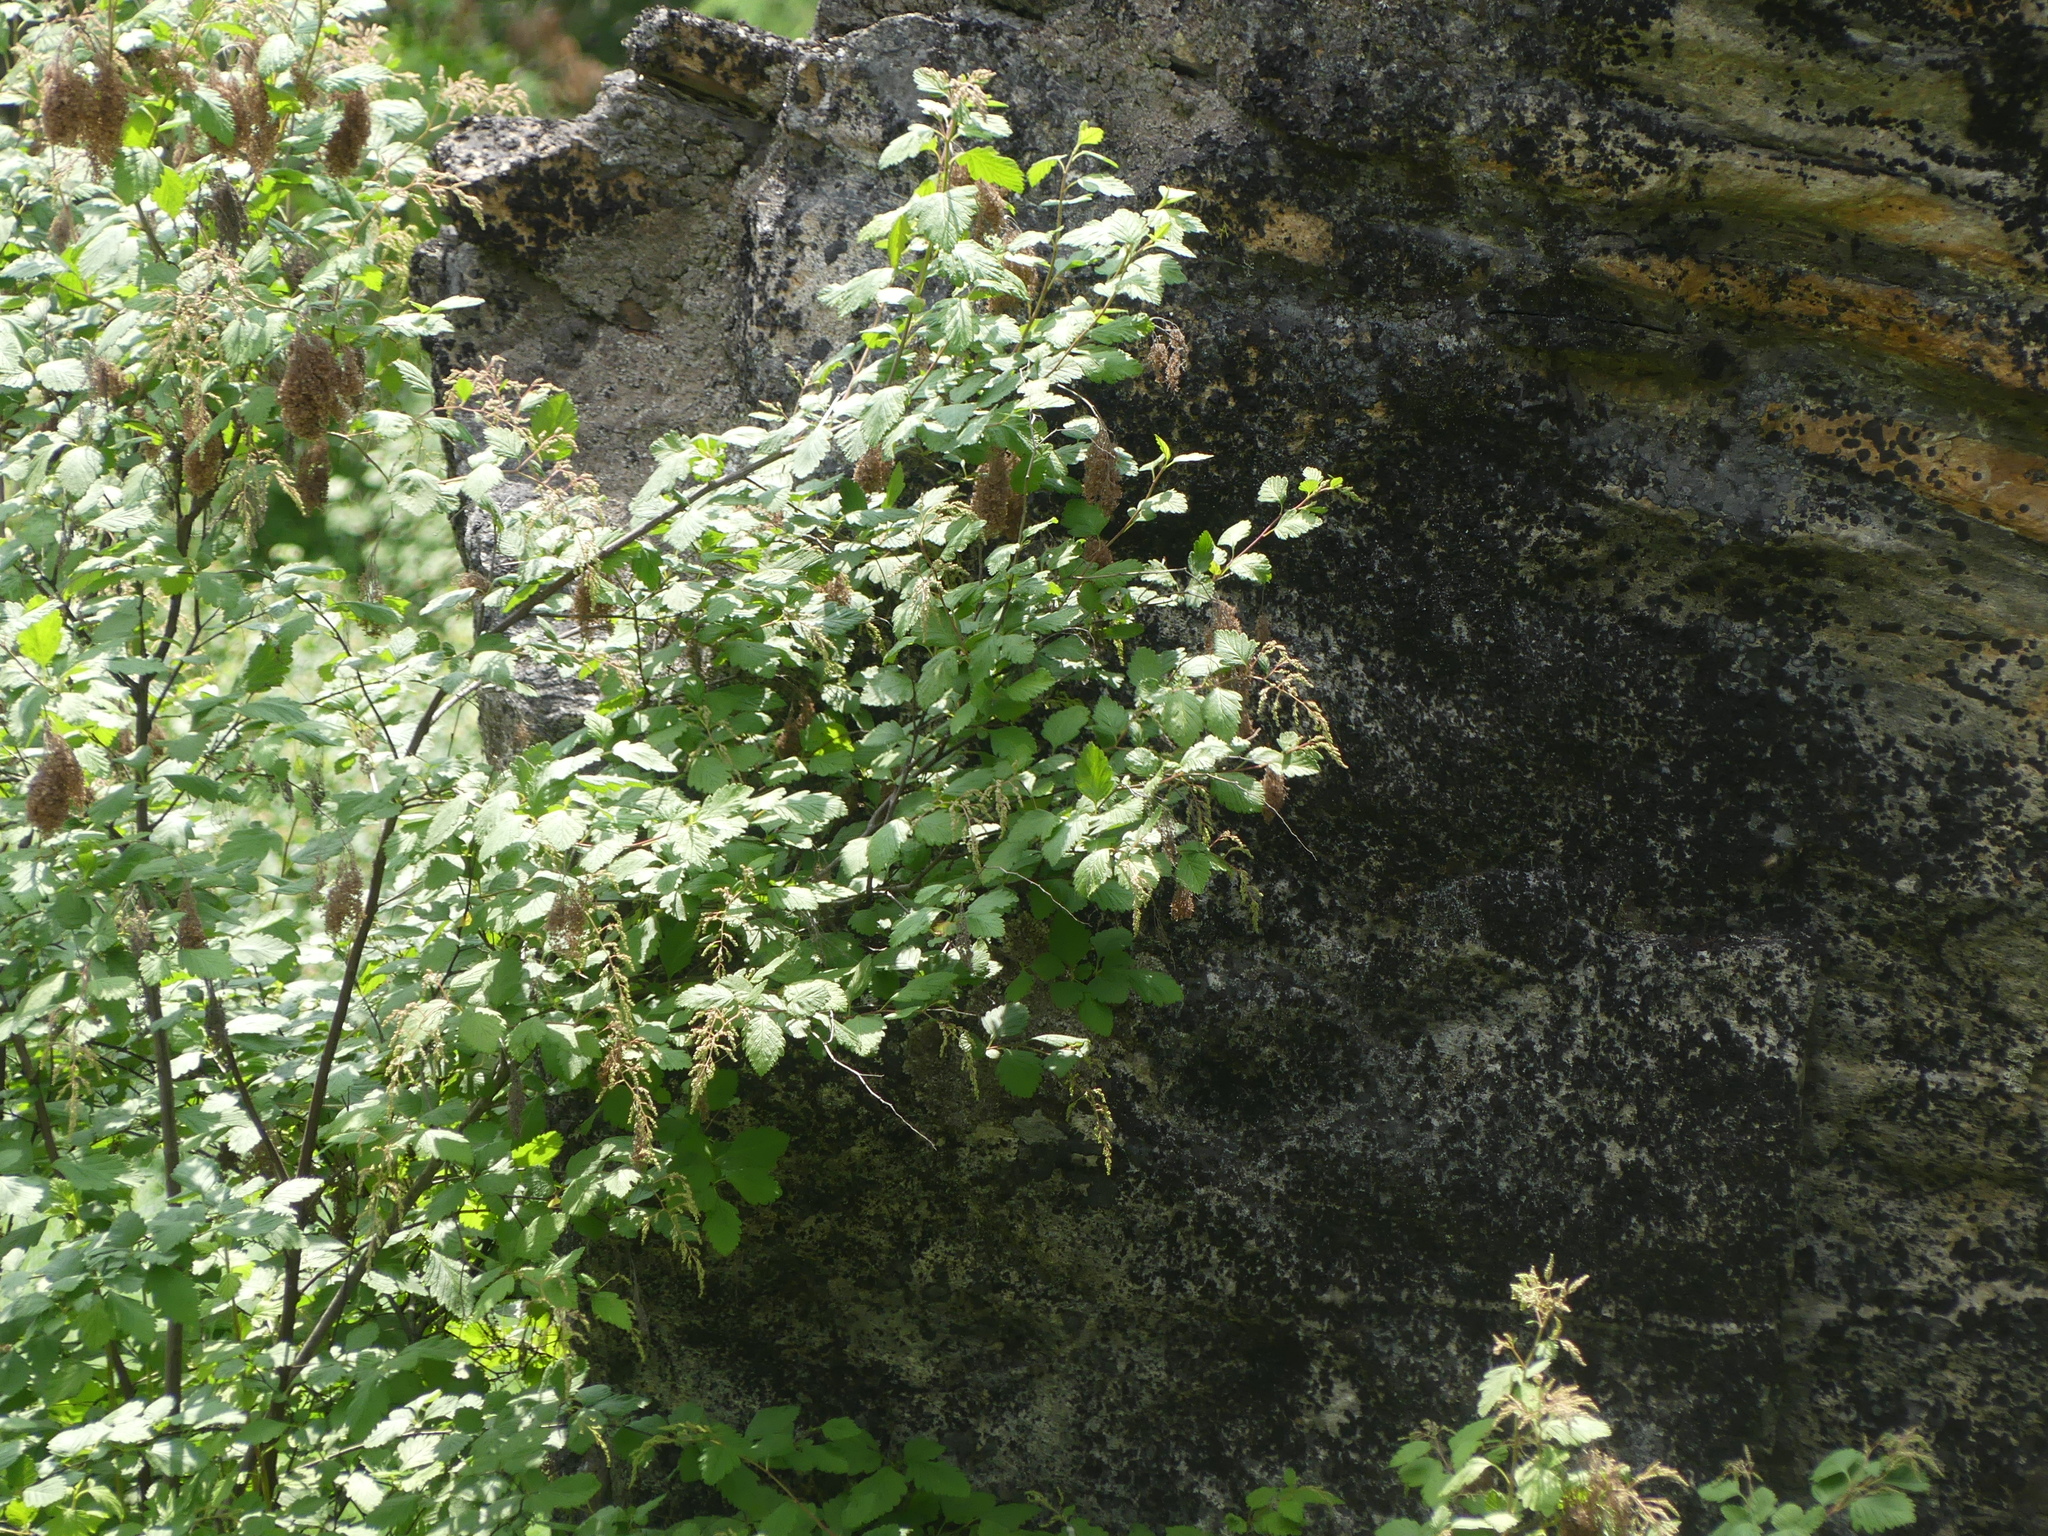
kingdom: Plantae
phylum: Tracheophyta
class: Magnoliopsida
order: Rosales
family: Rosaceae
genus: Holodiscus
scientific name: Holodiscus discolor
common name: Oceanspray
